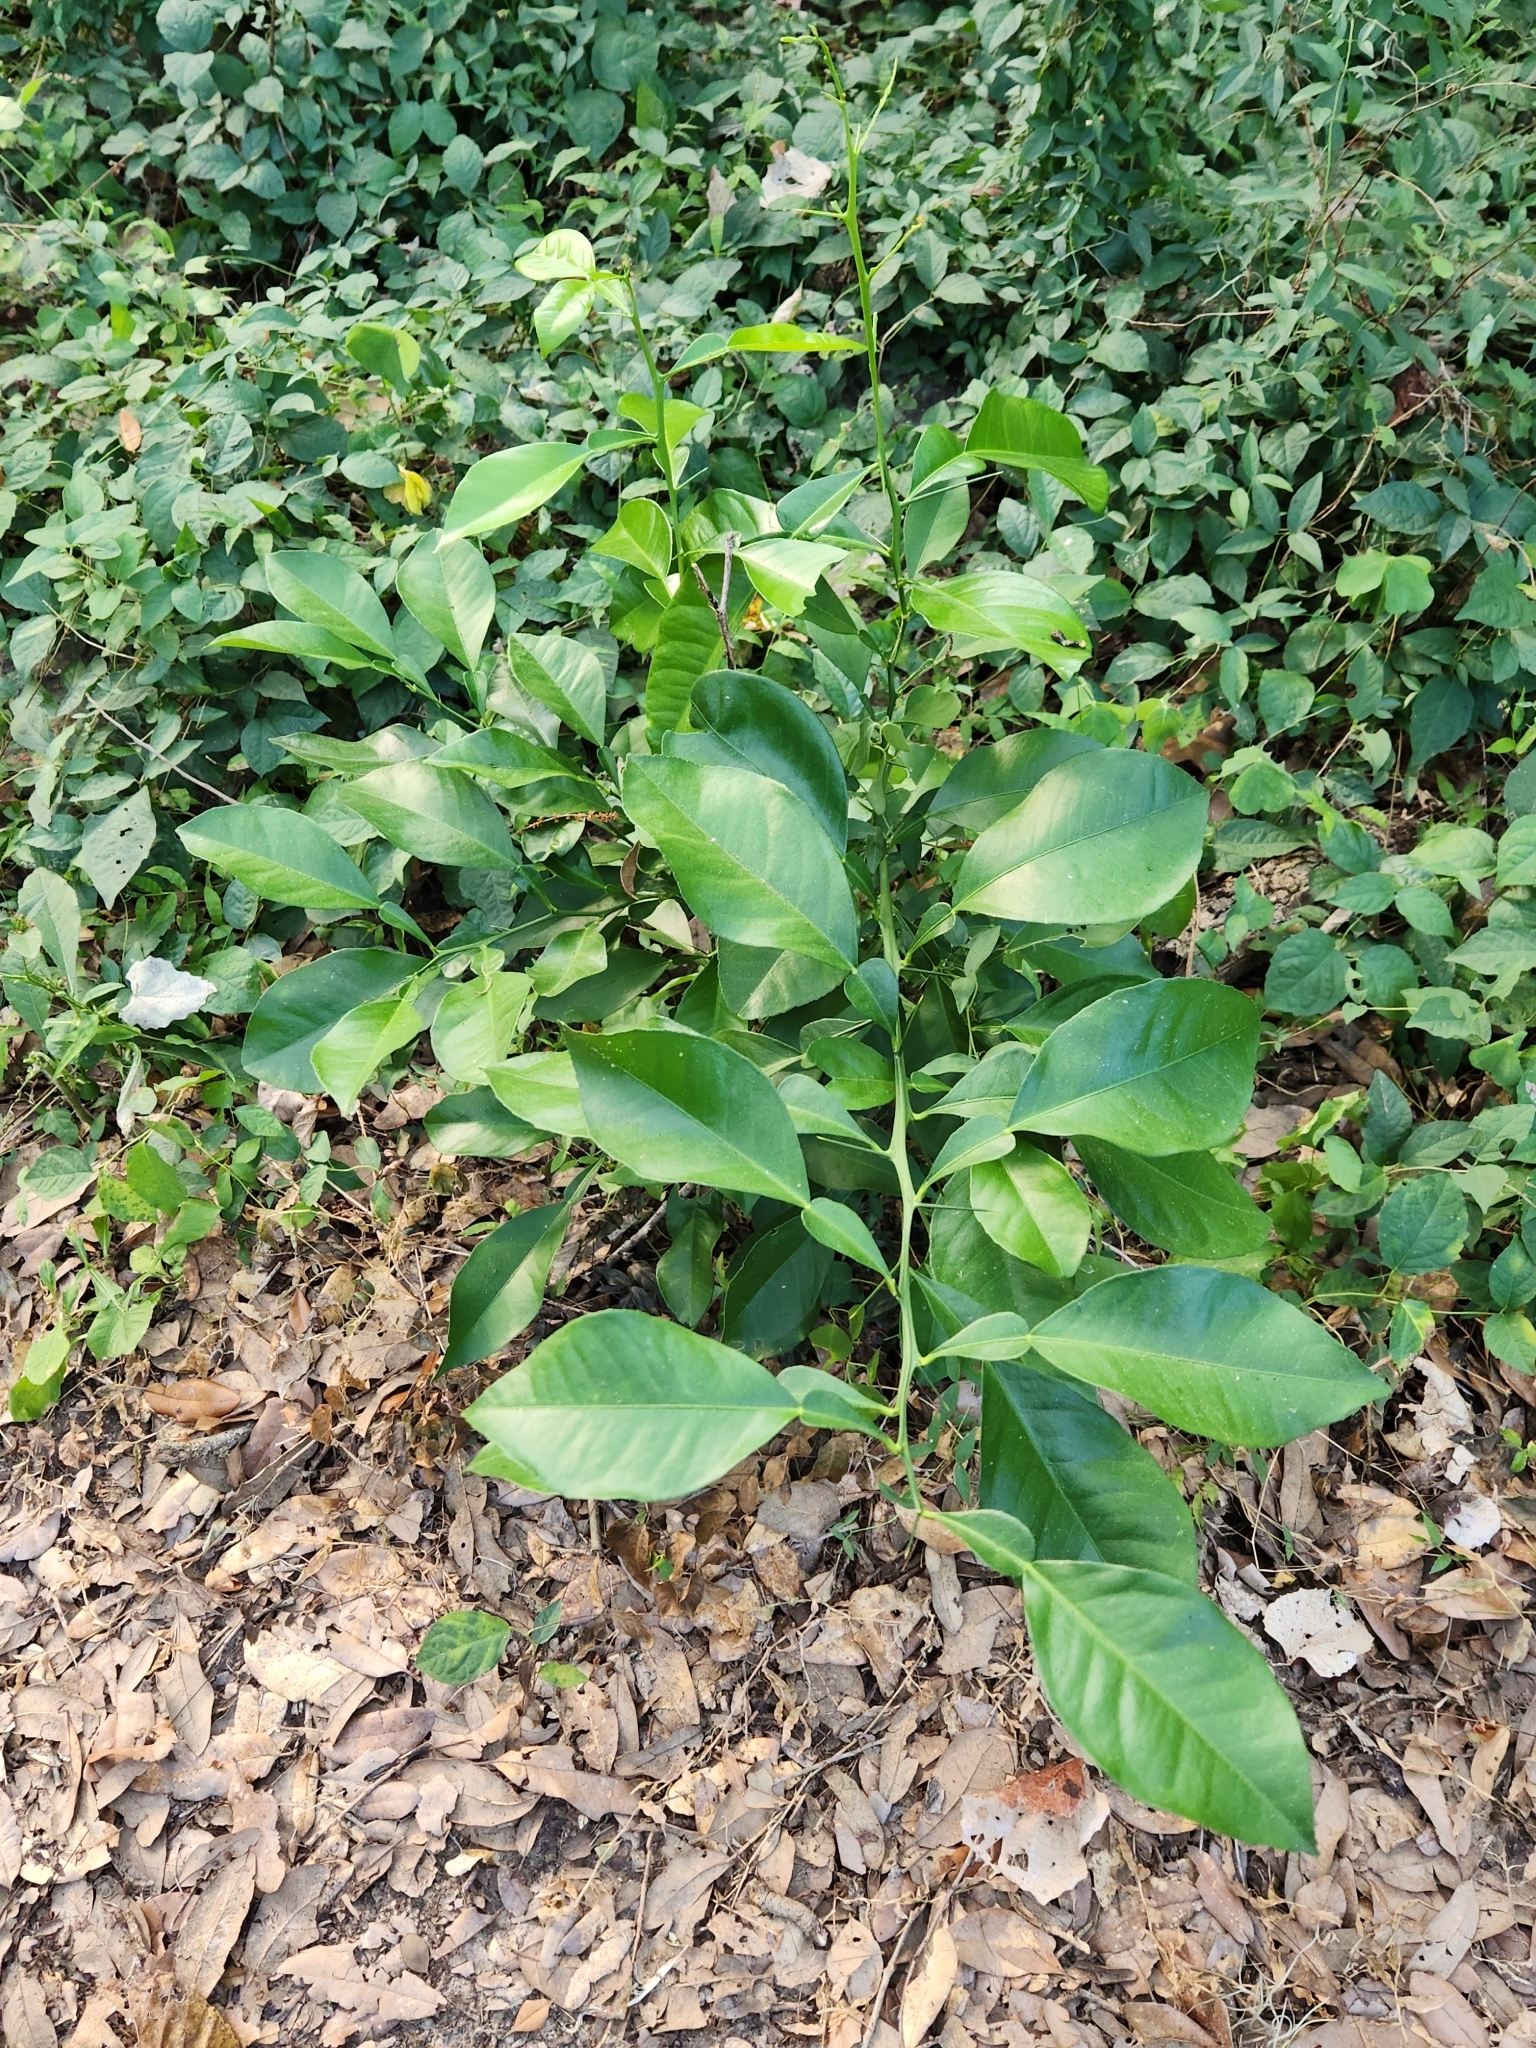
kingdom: Plantae
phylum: Tracheophyta
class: Magnoliopsida
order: Sapindales
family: Rutaceae
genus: Citrus
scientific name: Citrus aurantium
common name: Sour orange
